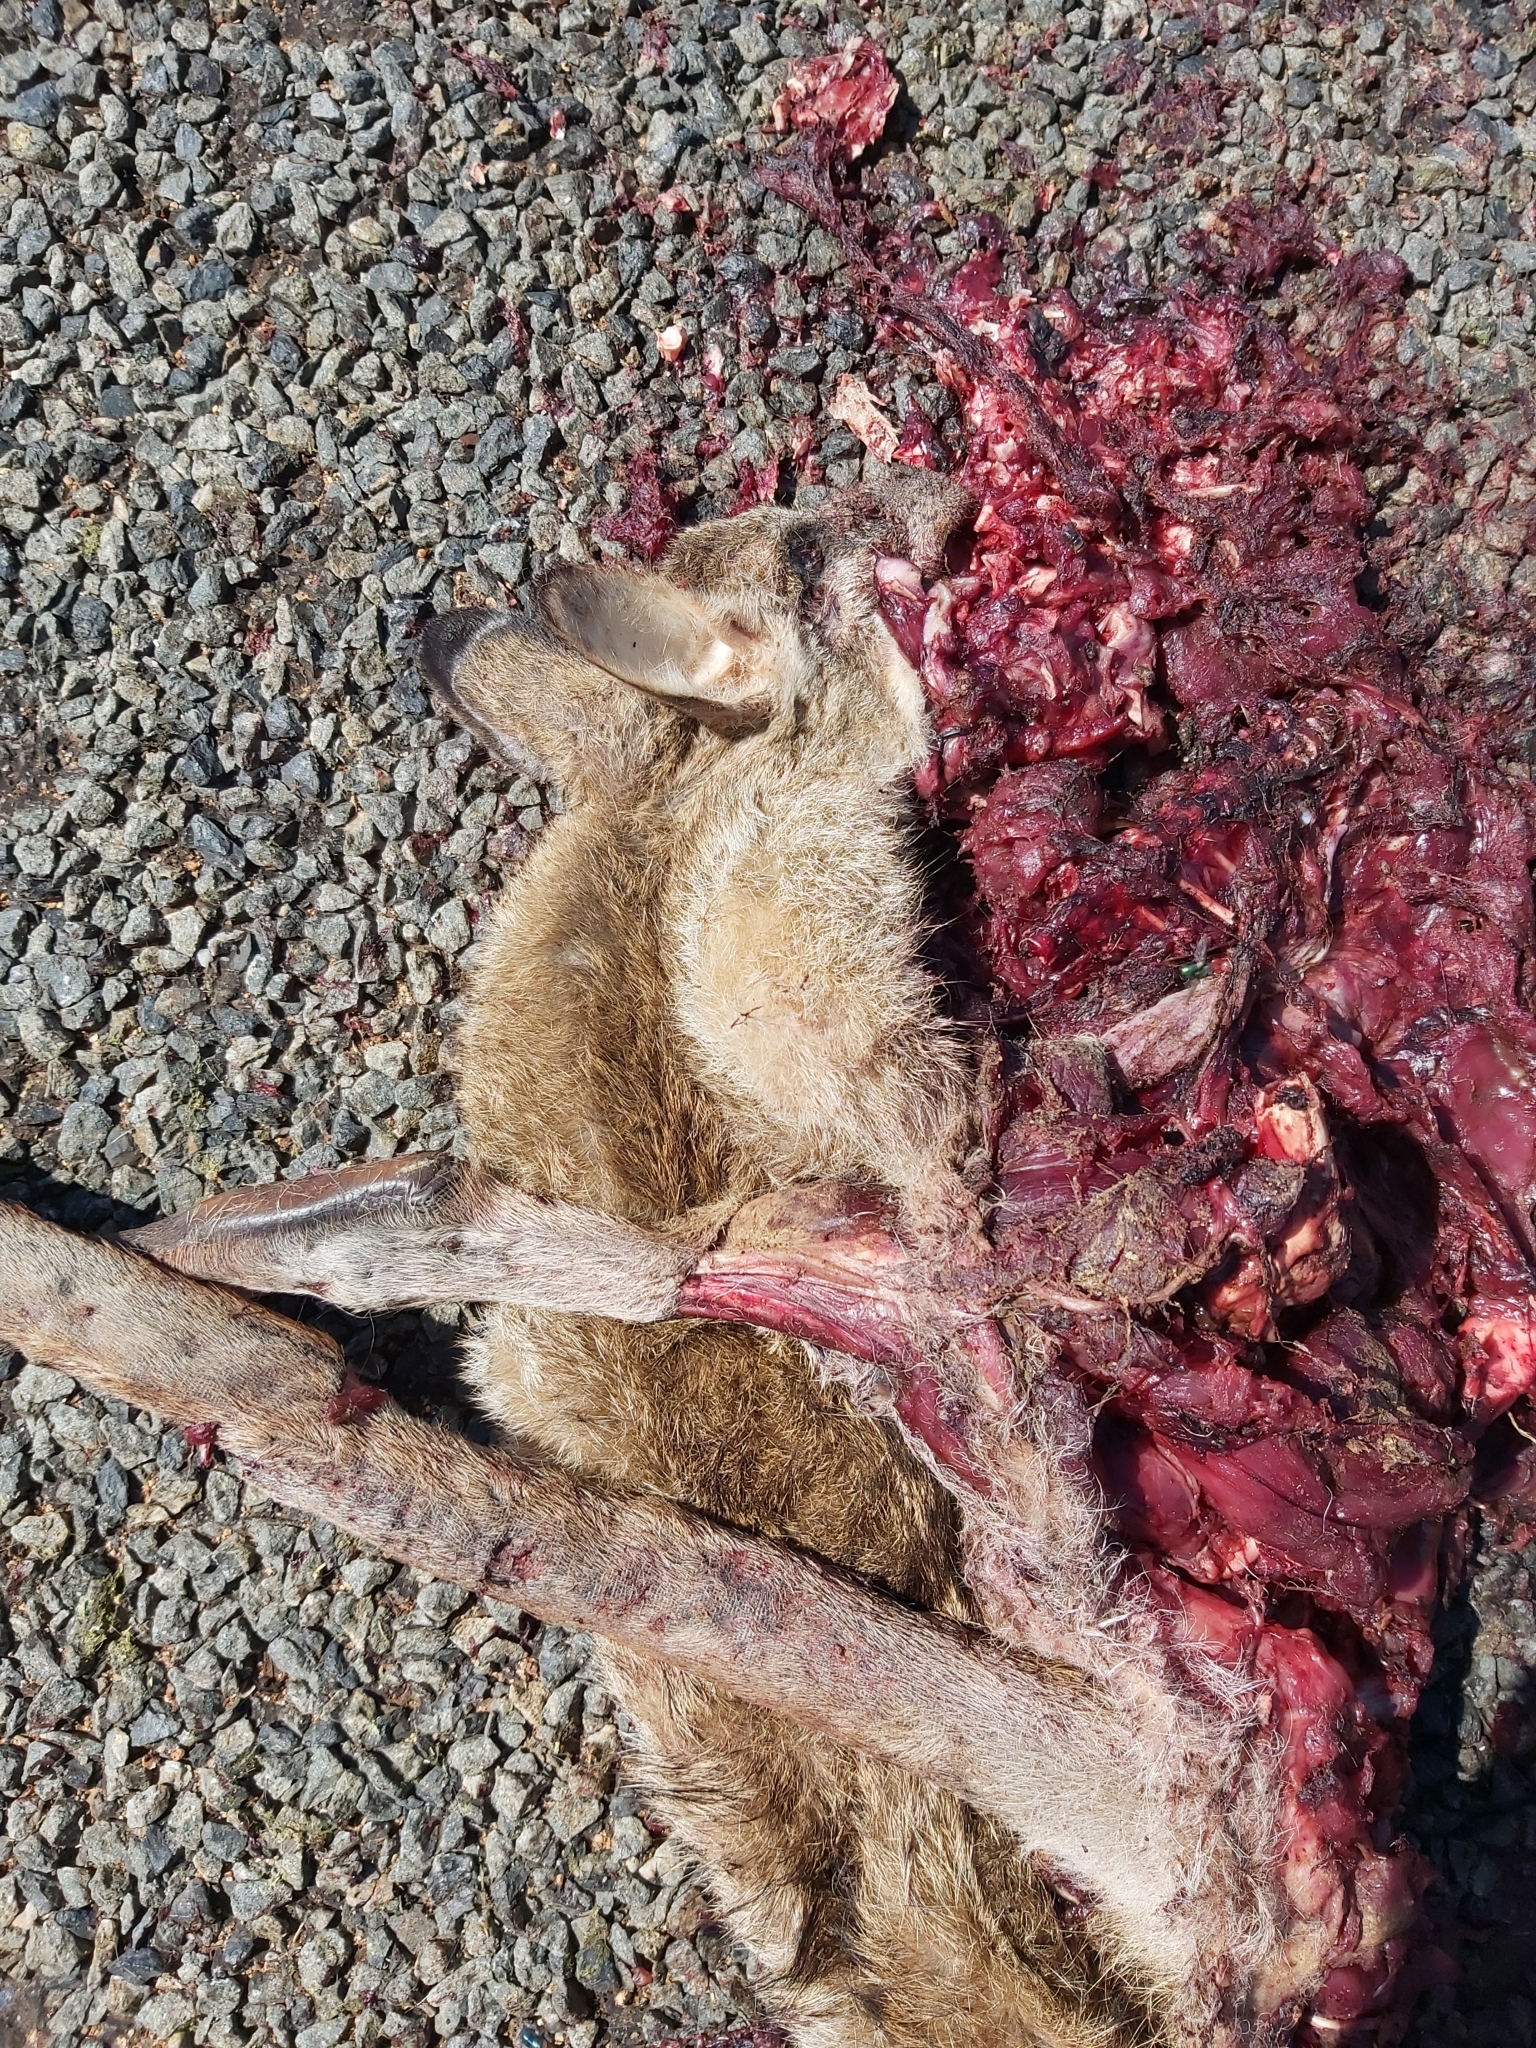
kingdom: Animalia
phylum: Chordata
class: Mammalia
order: Diprotodontia
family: Macropodidae
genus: Macropus
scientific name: Macropus agilis
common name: Agile wallaby
